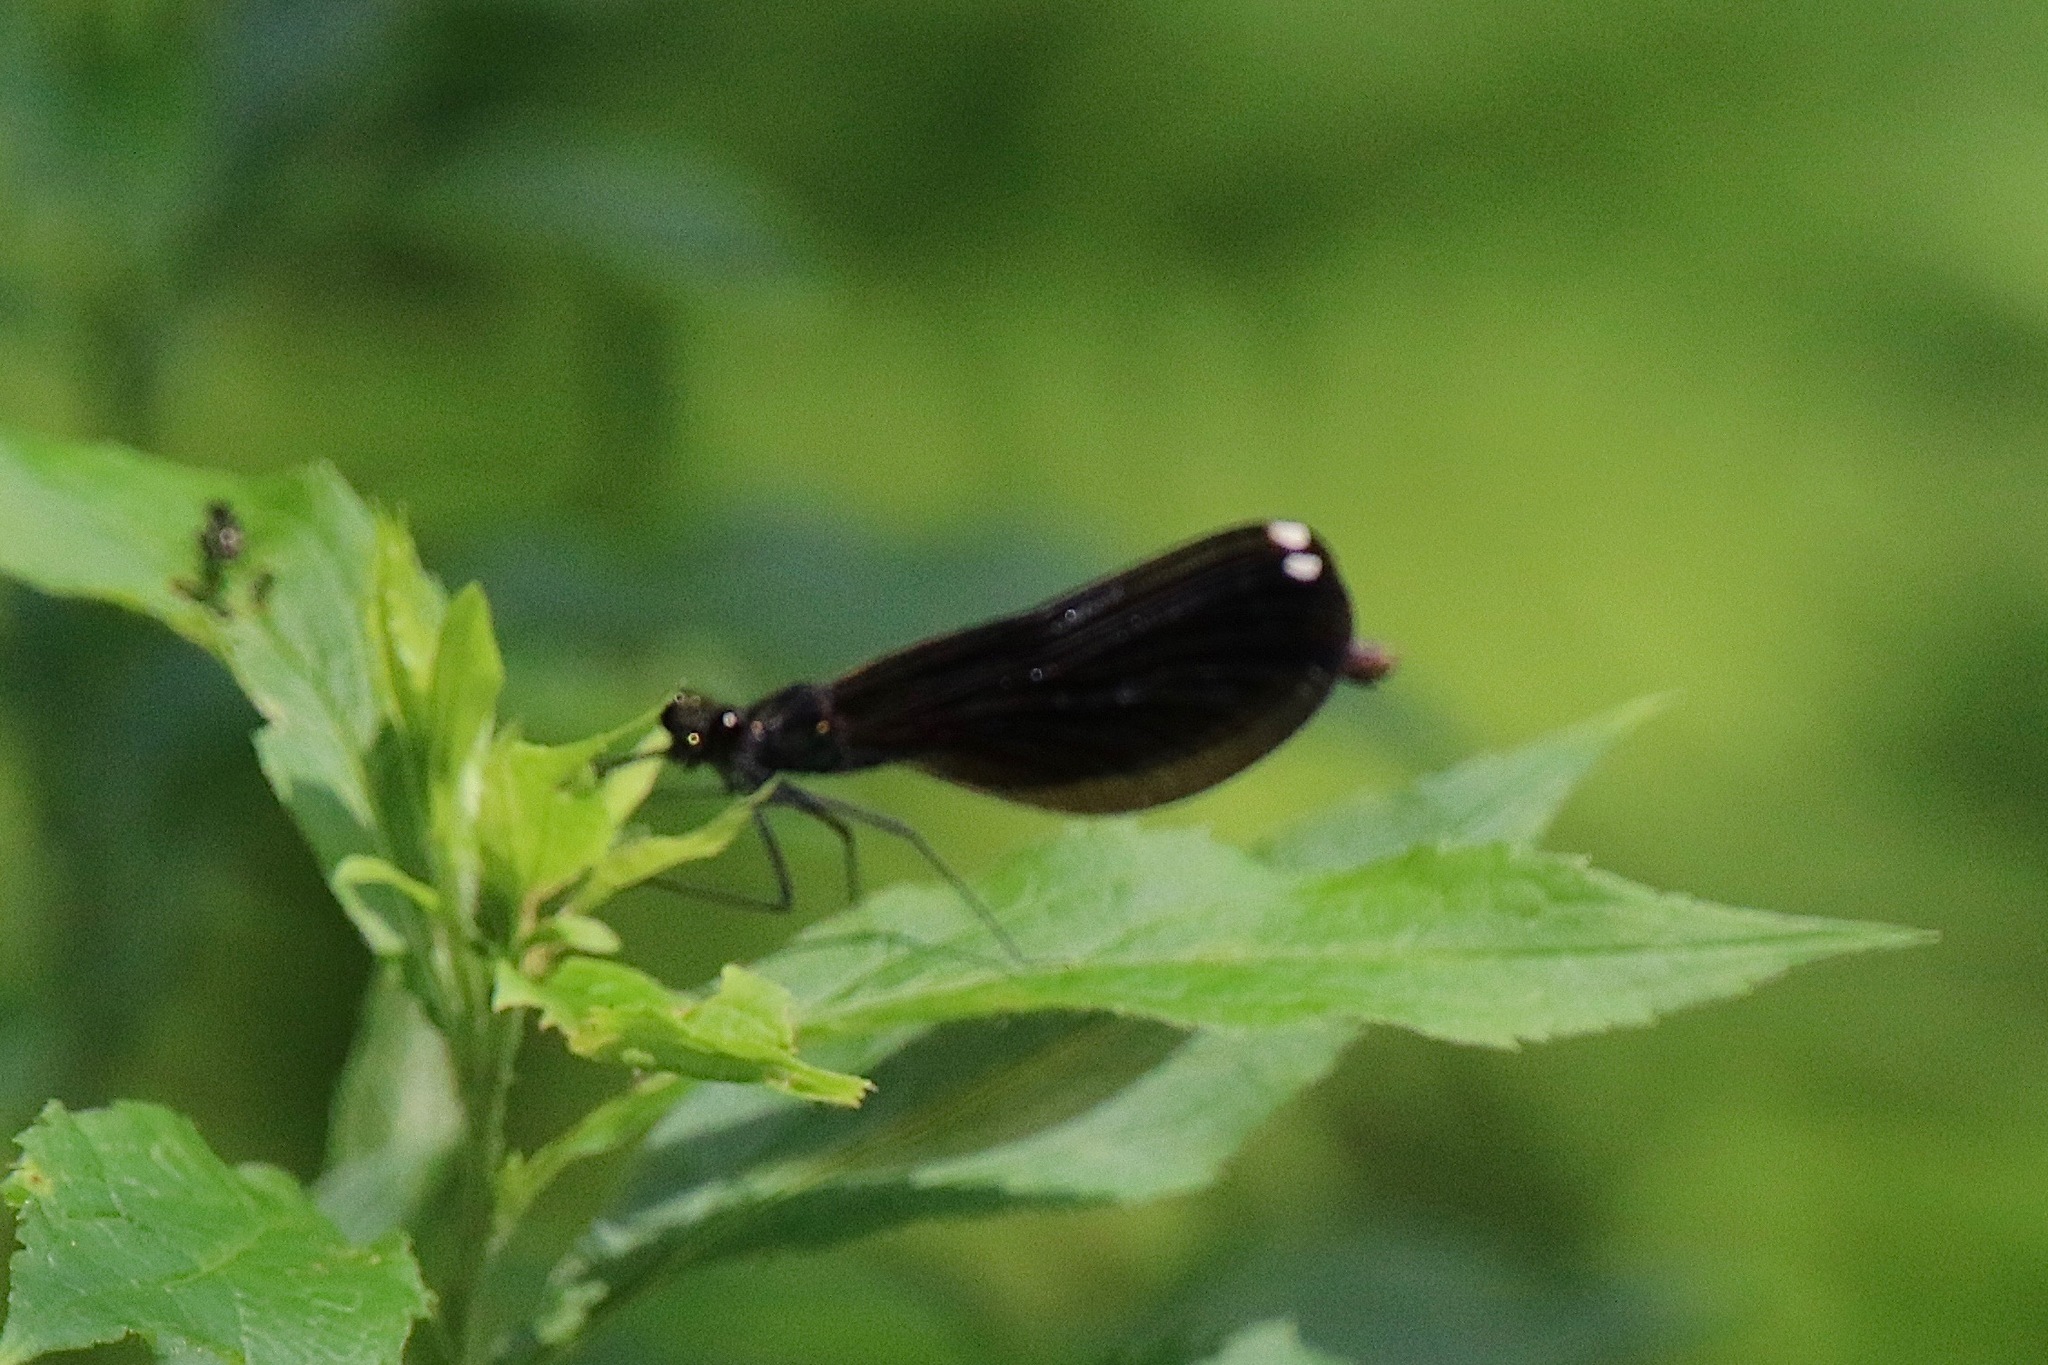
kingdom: Animalia
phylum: Arthropoda
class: Insecta
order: Odonata
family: Calopterygidae
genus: Calopteryx
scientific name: Calopteryx maculata
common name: Ebony jewelwing
